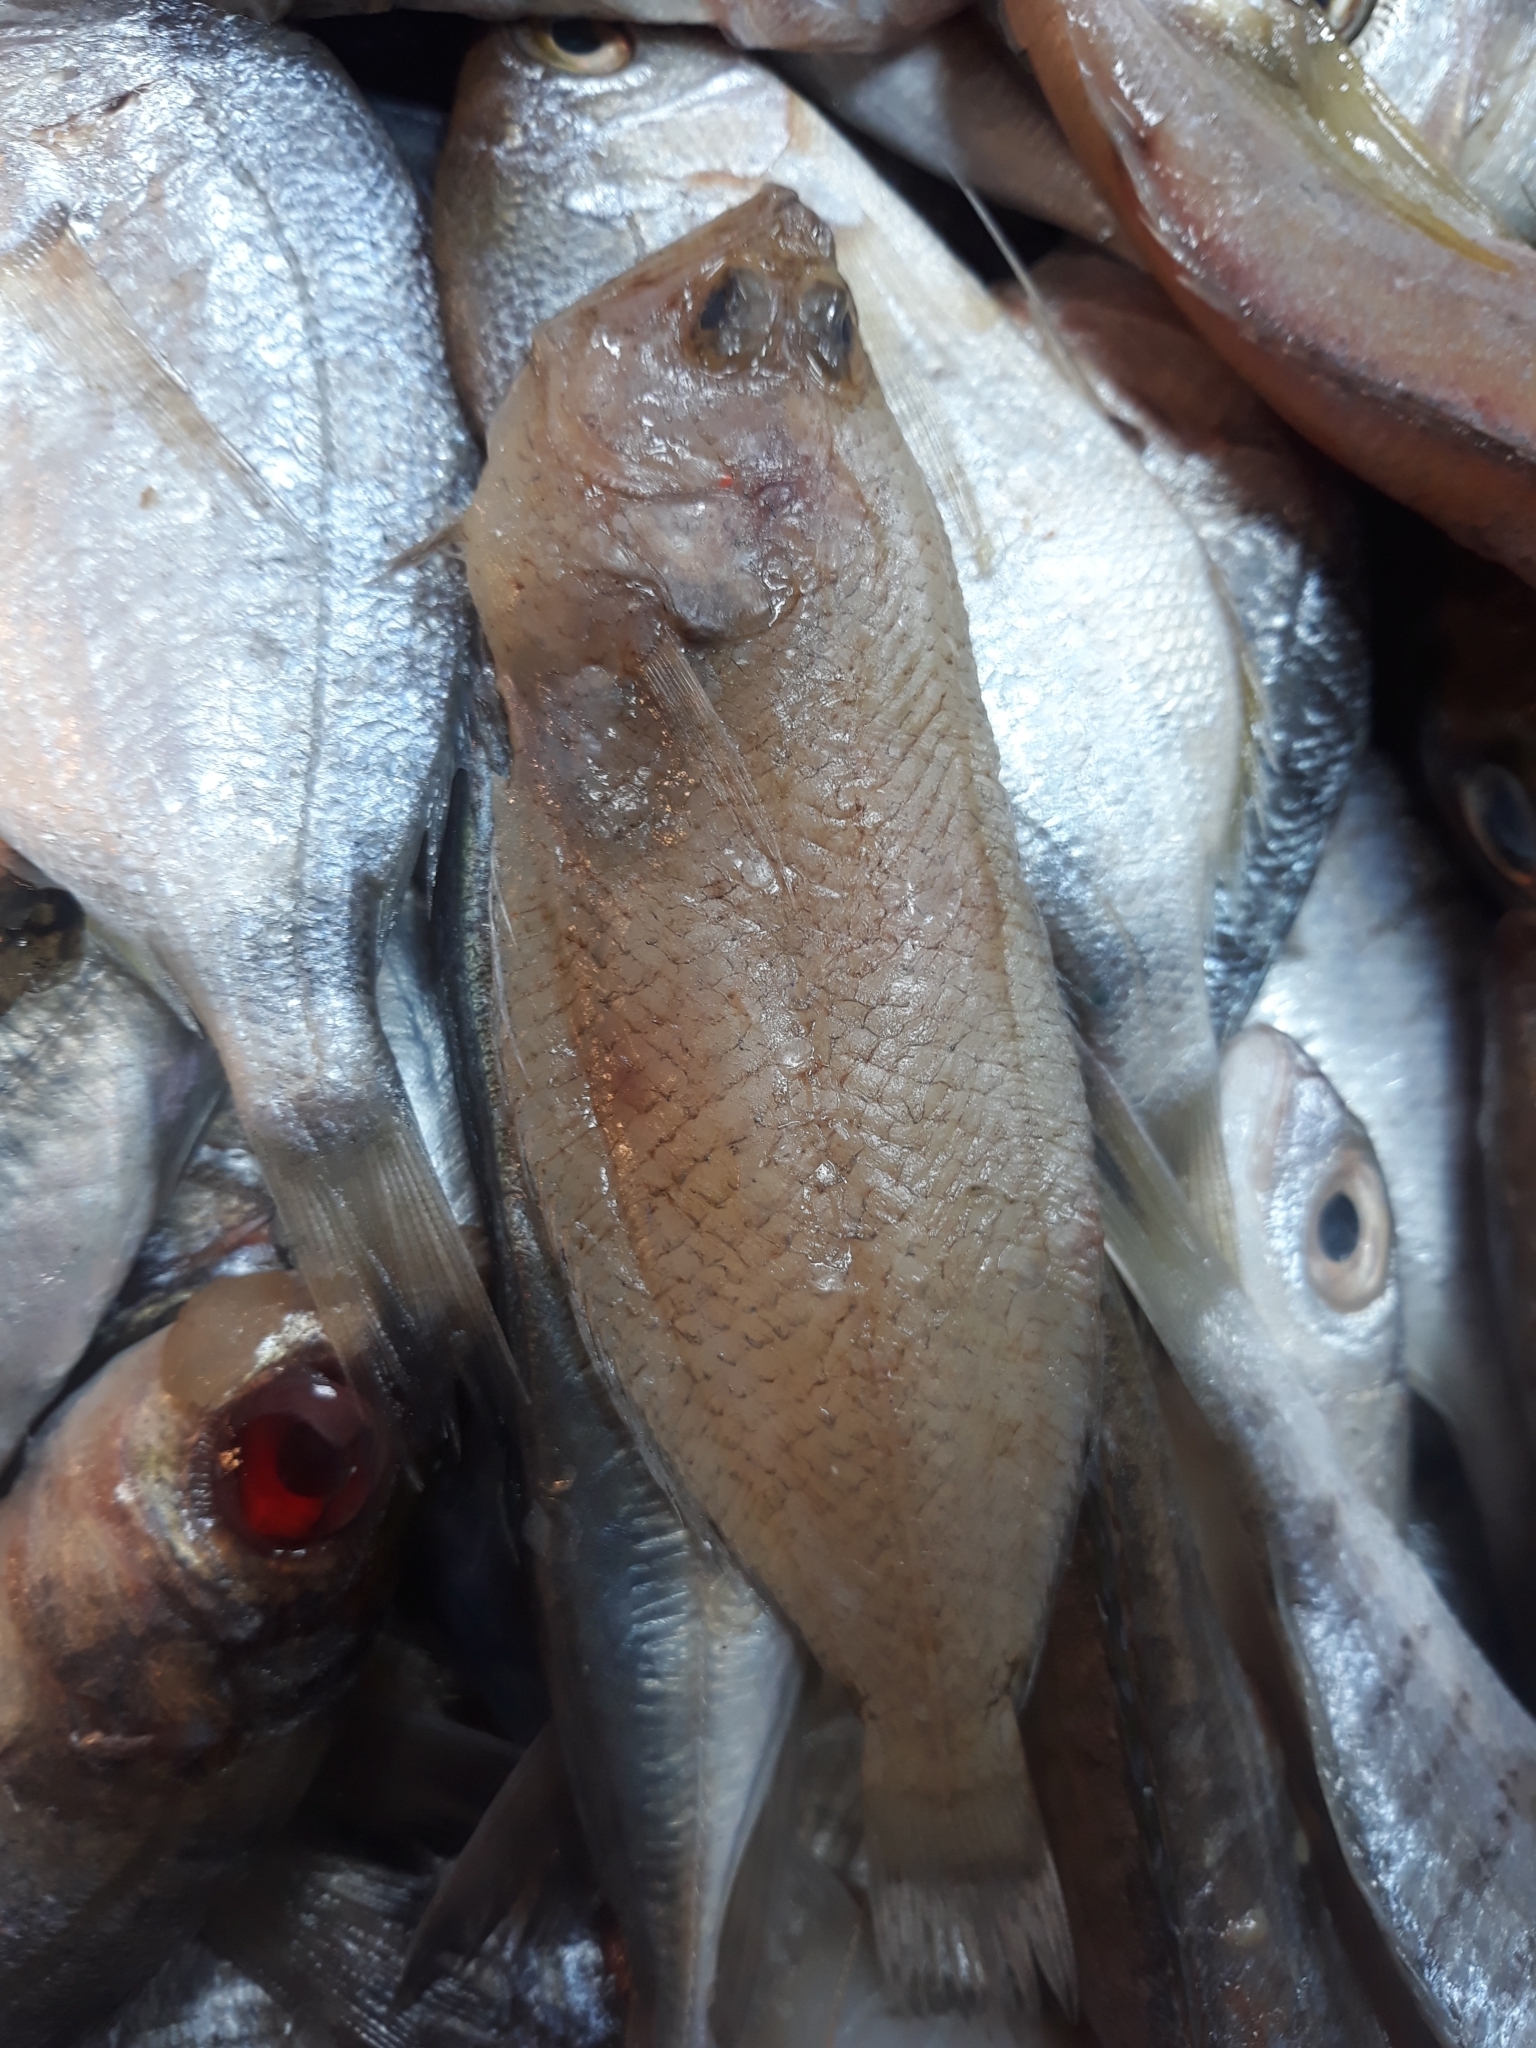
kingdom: Animalia
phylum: Chordata
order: Pleuronectiformes
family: Citharidae
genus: Citharus
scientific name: Citharus linguatula
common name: Atlantic spotted flounder
